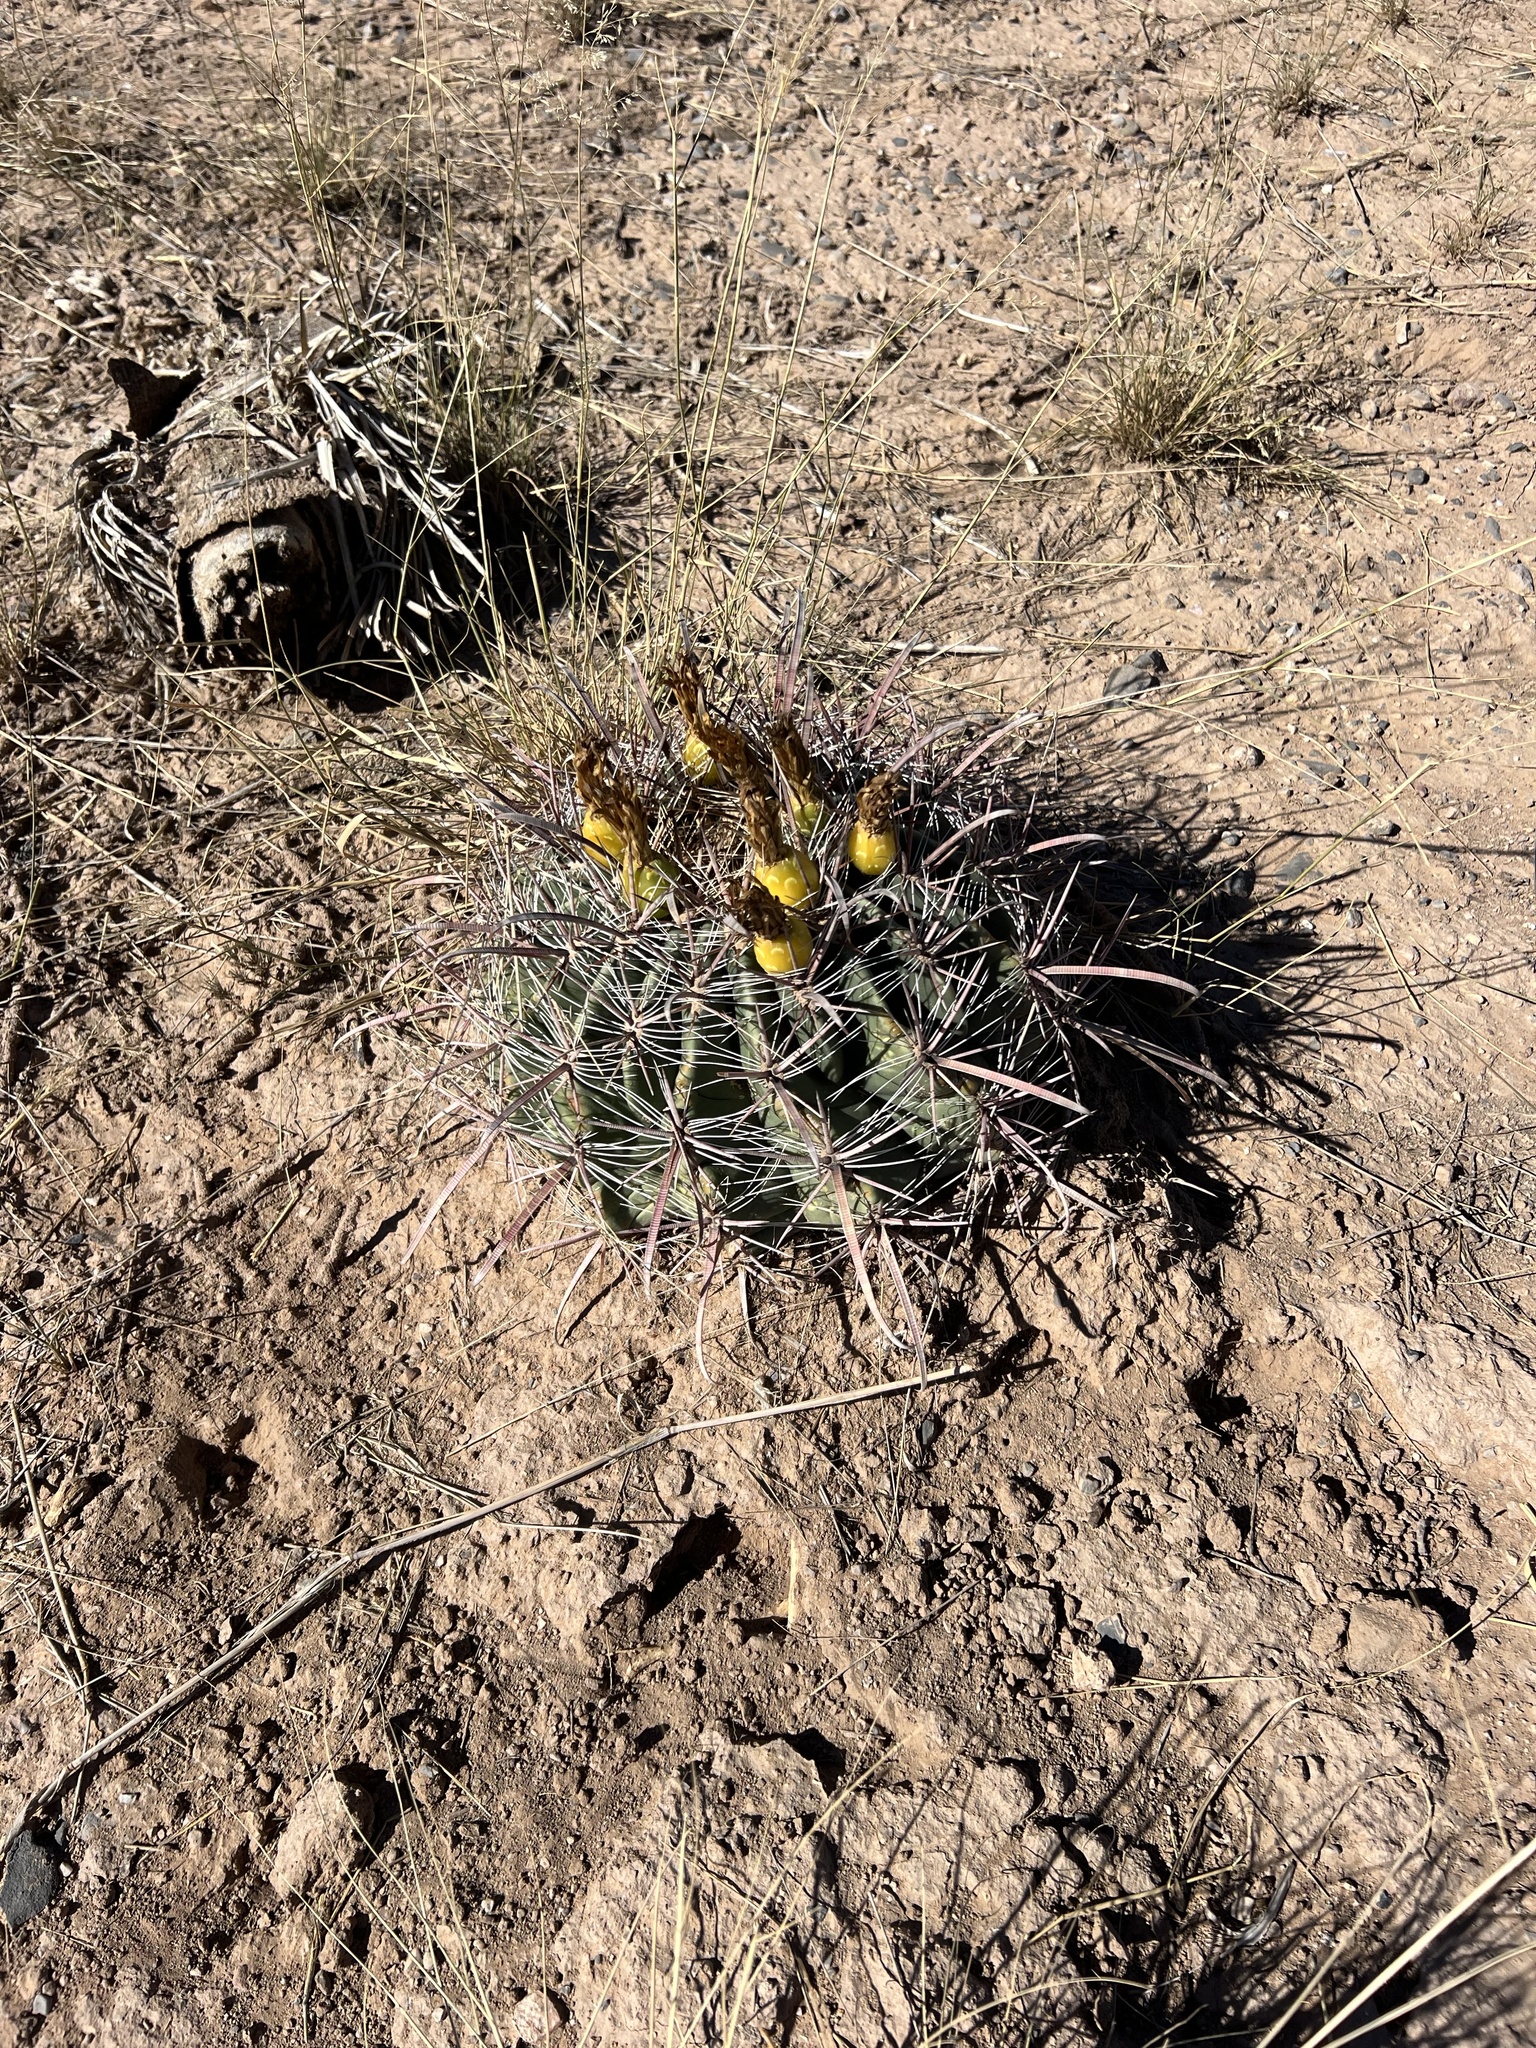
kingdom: Plantae
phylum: Tracheophyta
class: Magnoliopsida
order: Caryophyllales
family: Cactaceae
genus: Ferocactus
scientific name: Ferocactus wislizeni
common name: Candy barrel cactus
